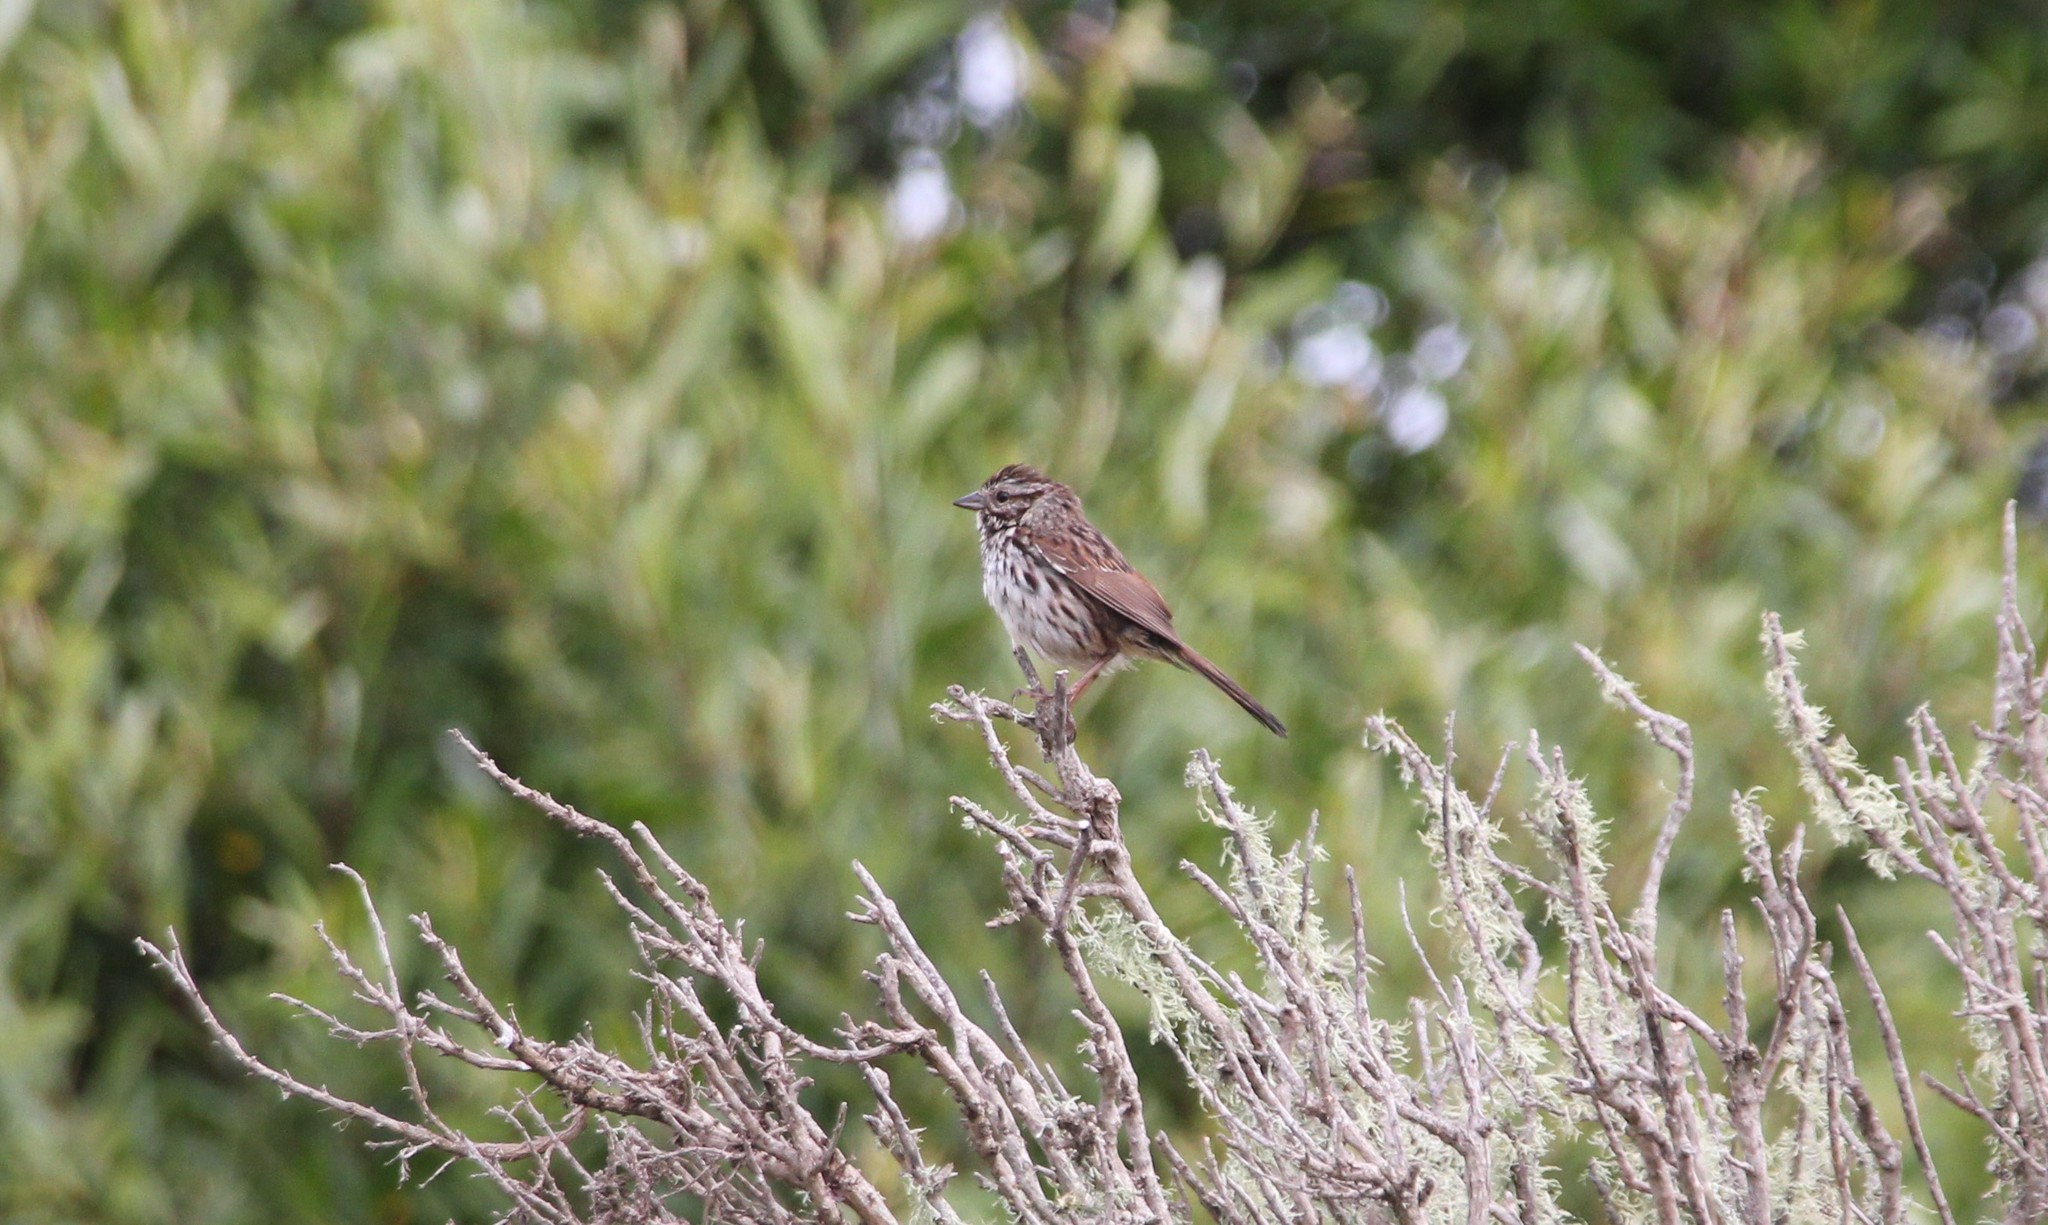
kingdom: Animalia
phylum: Chordata
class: Aves
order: Passeriformes
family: Passerellidae
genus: Melospiza
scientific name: Melospiza melodia
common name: Song sparrow
